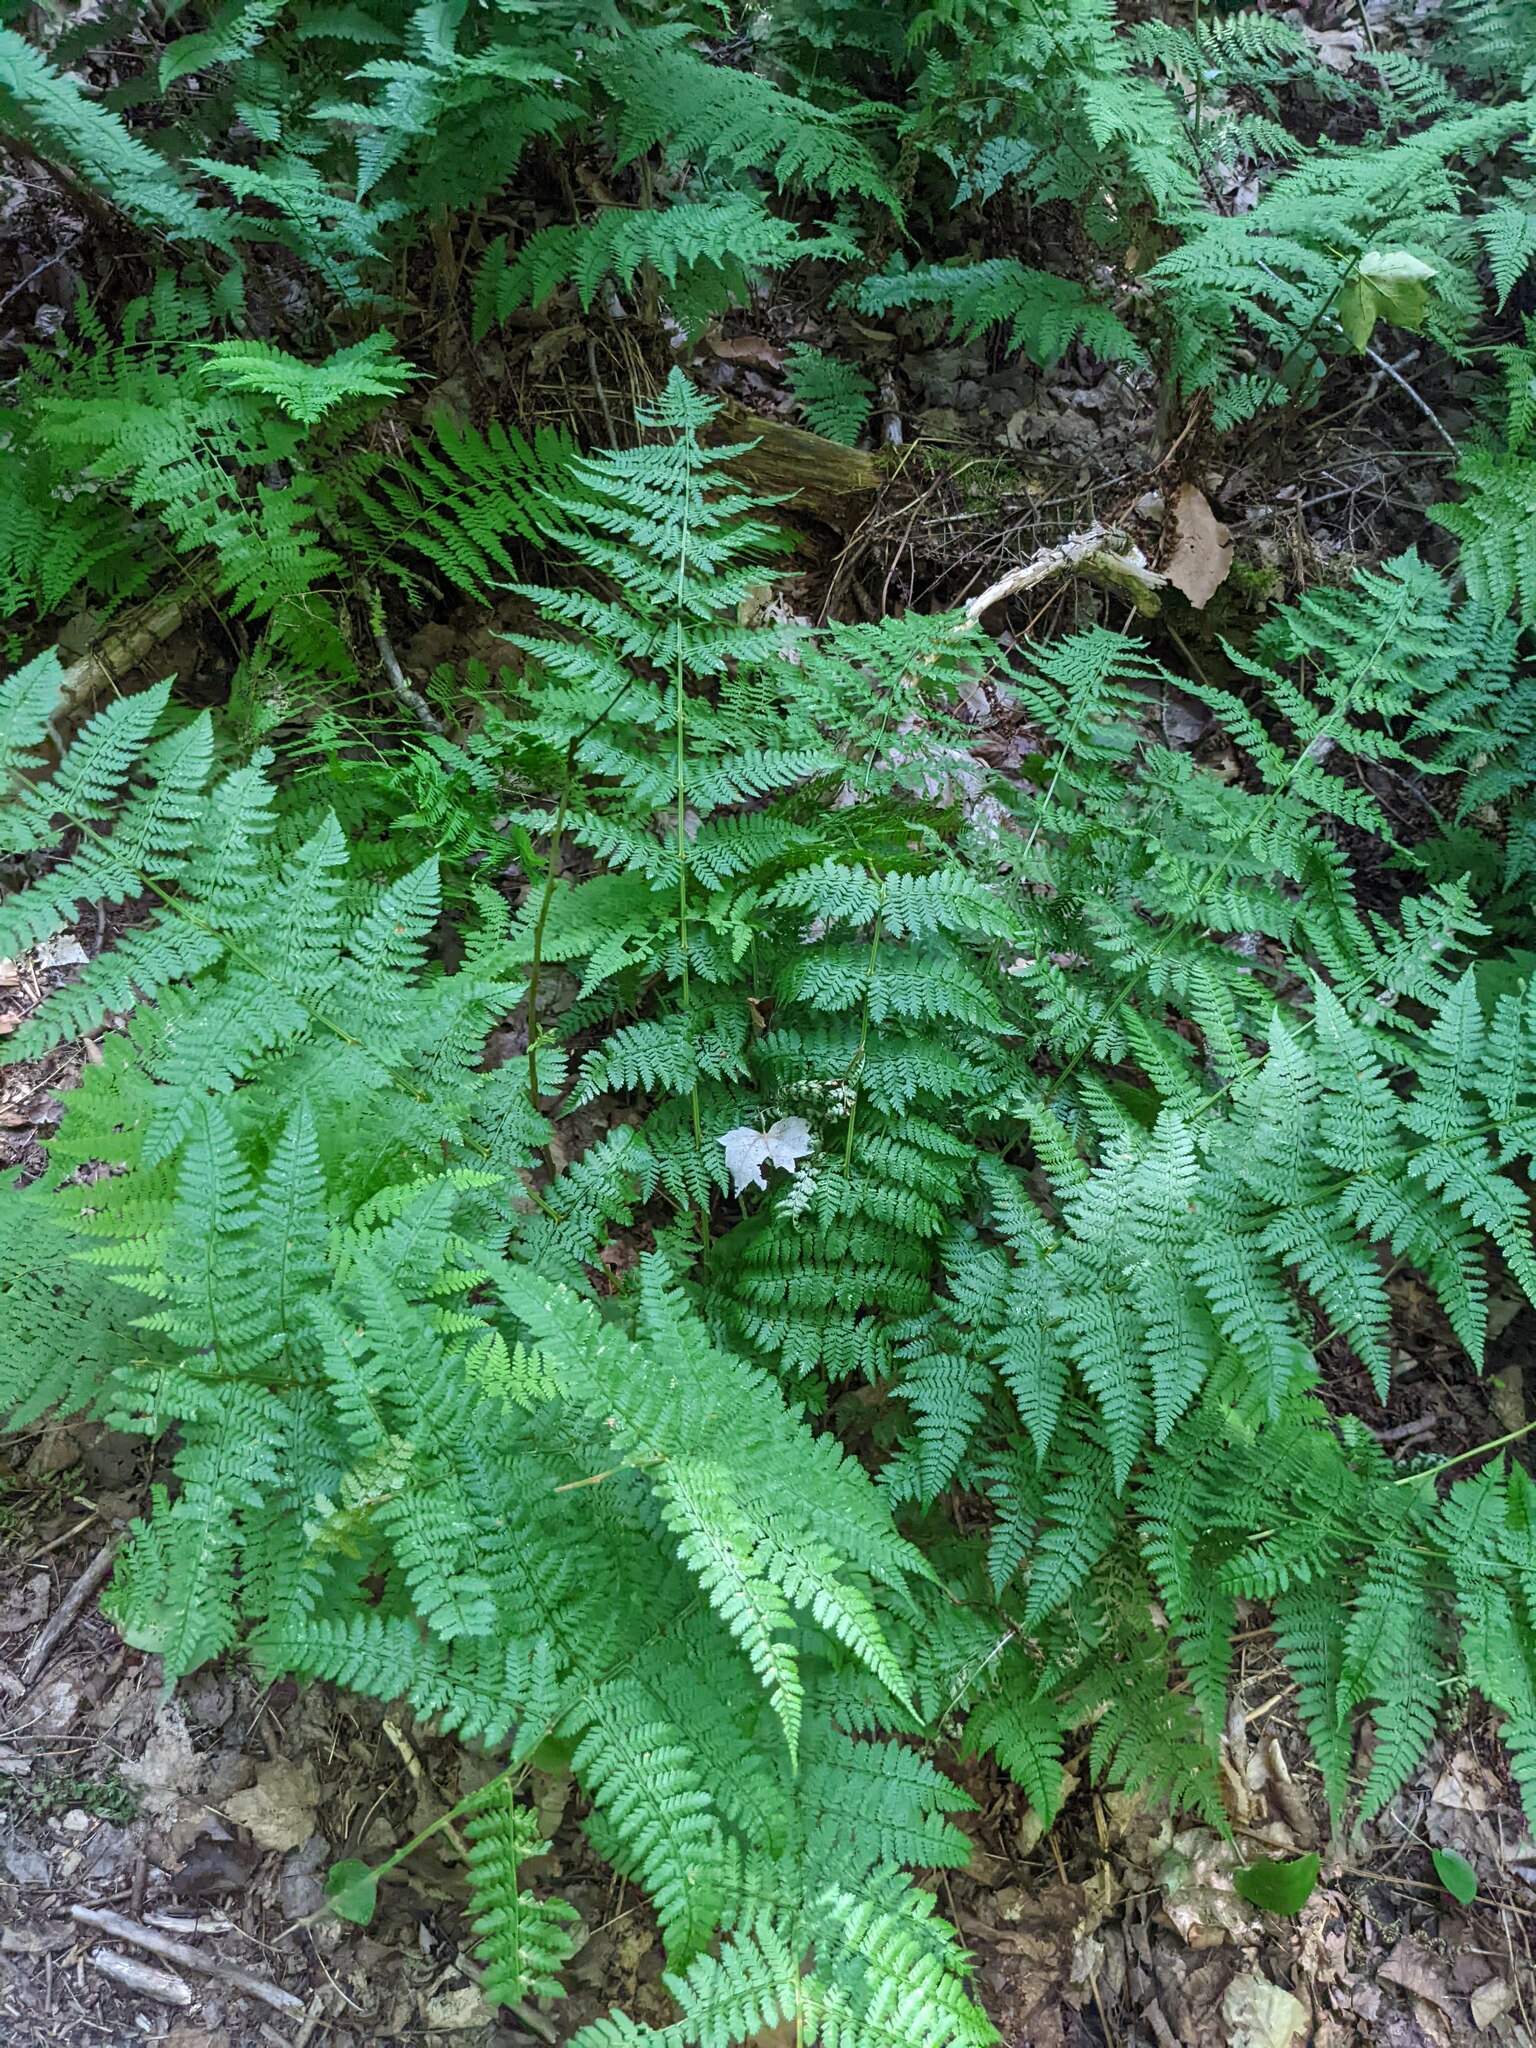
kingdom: Plantae
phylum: Tracheophyta
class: Polypodiopsida
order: Polypodiales
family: Dryopteridaceae
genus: Dryopteris
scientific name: Dryopteris intermedia
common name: Evergreen wood fern
